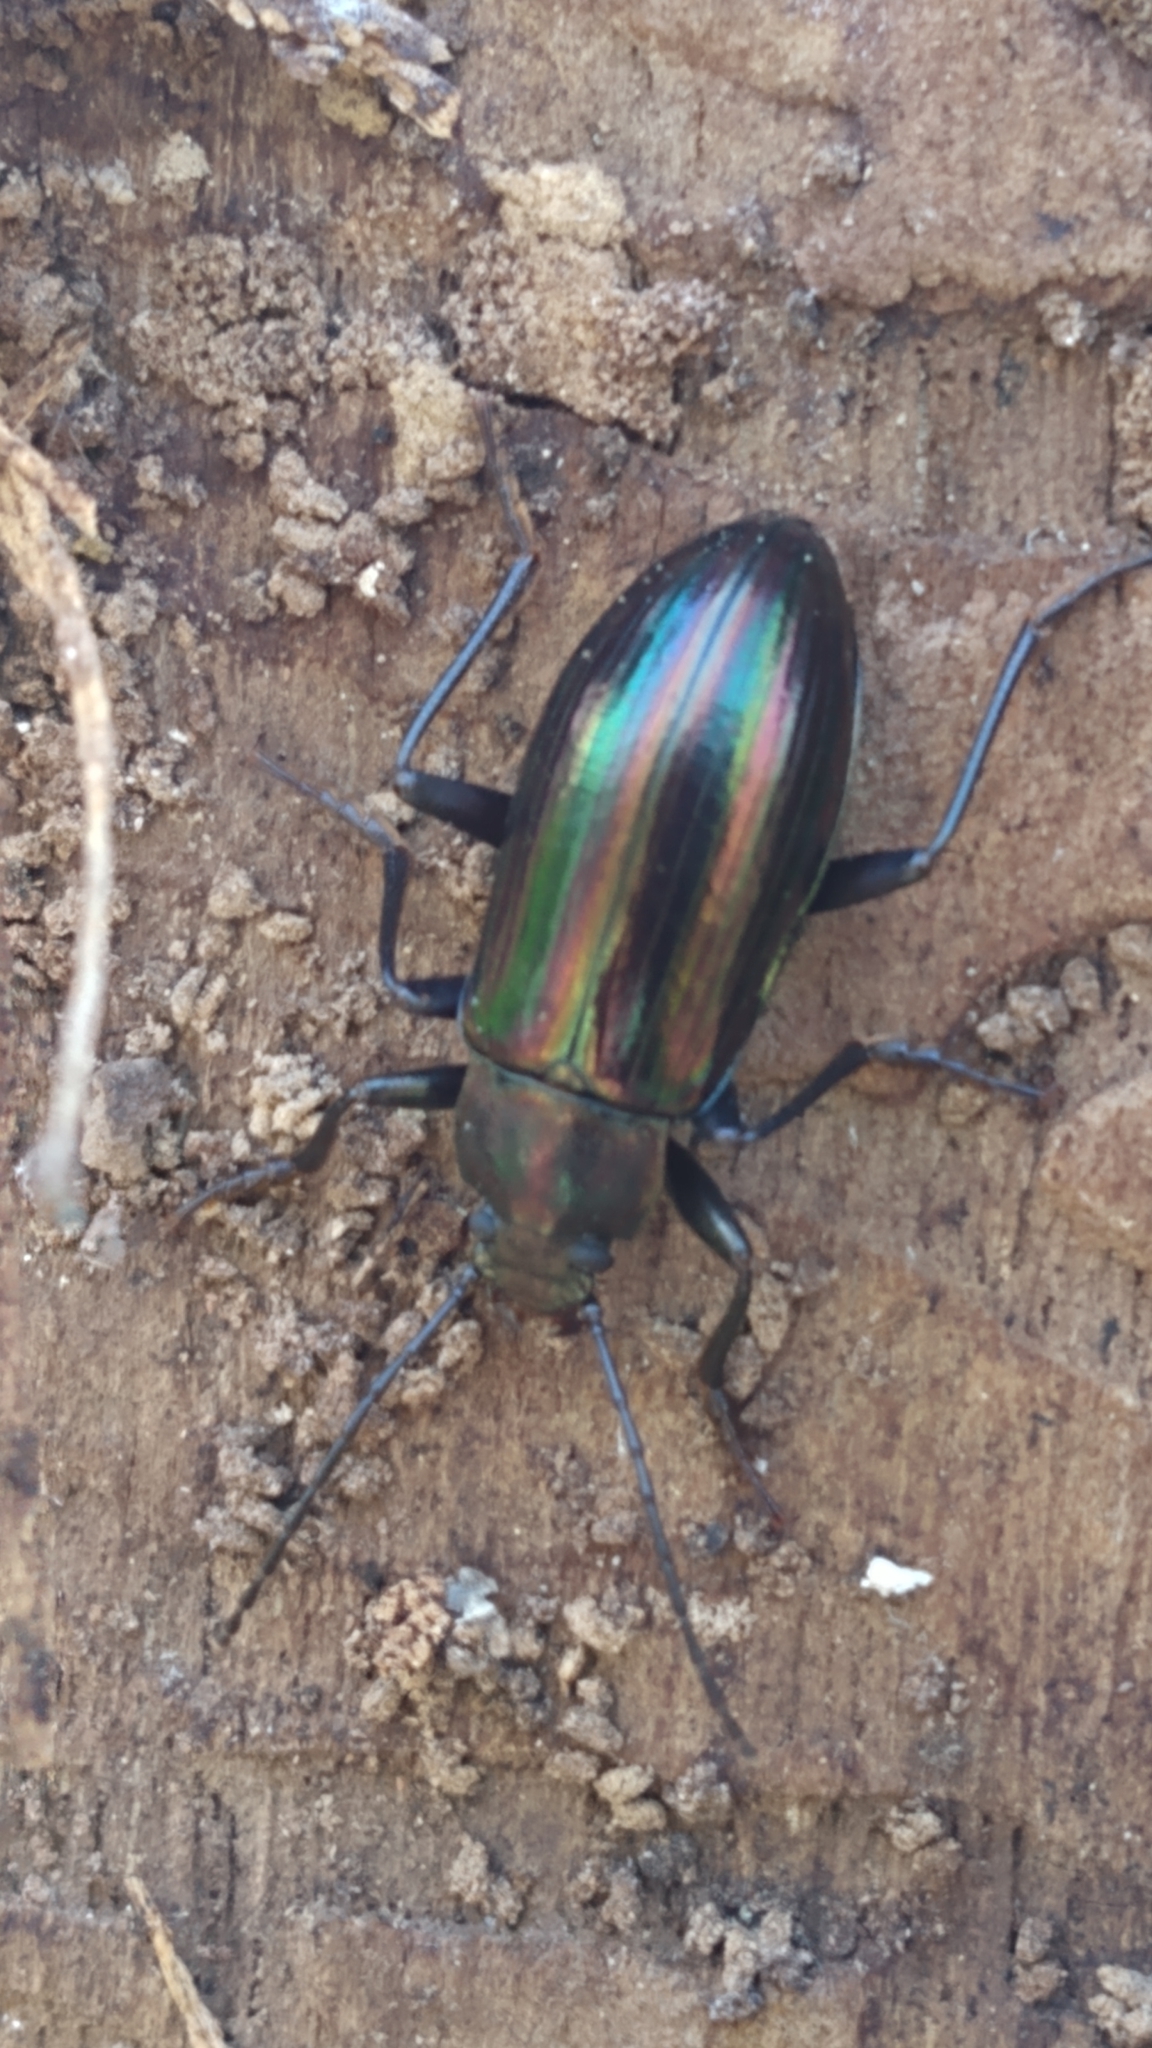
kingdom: Animalia
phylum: Arthropoda
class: Insecta
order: Coleoptera
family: Tenebrionidae
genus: Tarpela
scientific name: Tarpela micans
